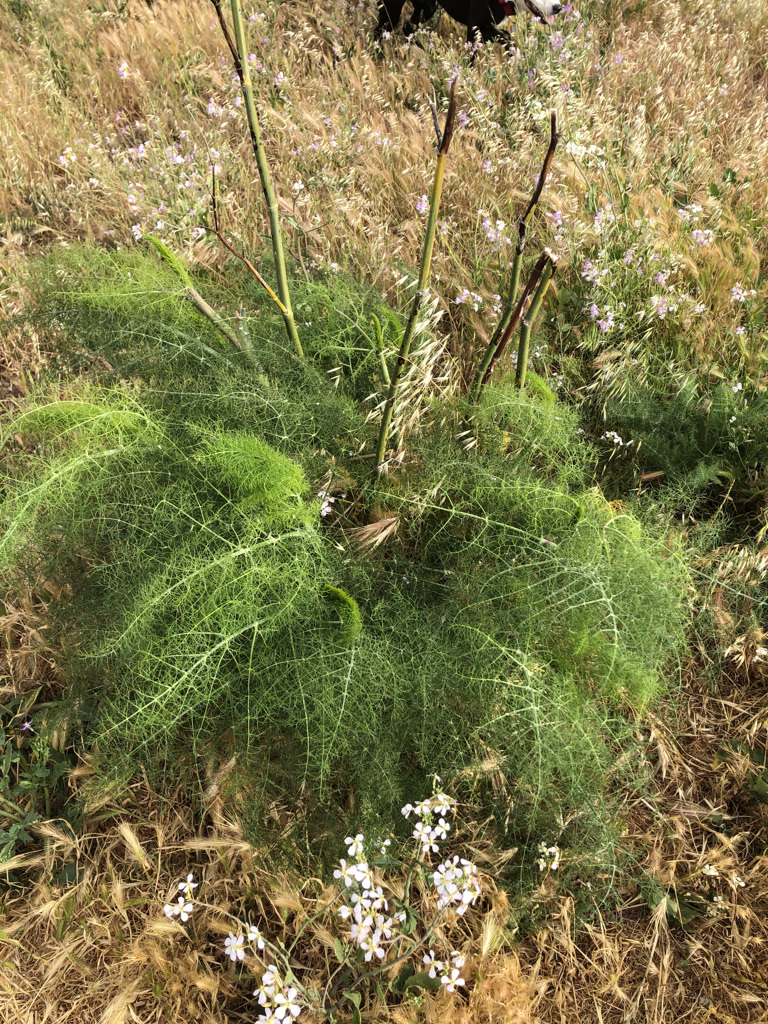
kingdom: Plantae
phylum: Tracheophyta
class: Magnoliopsida
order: Apiales
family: Apiaceae
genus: Foeniculum
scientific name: Foeniculum vulgare
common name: Fennel
